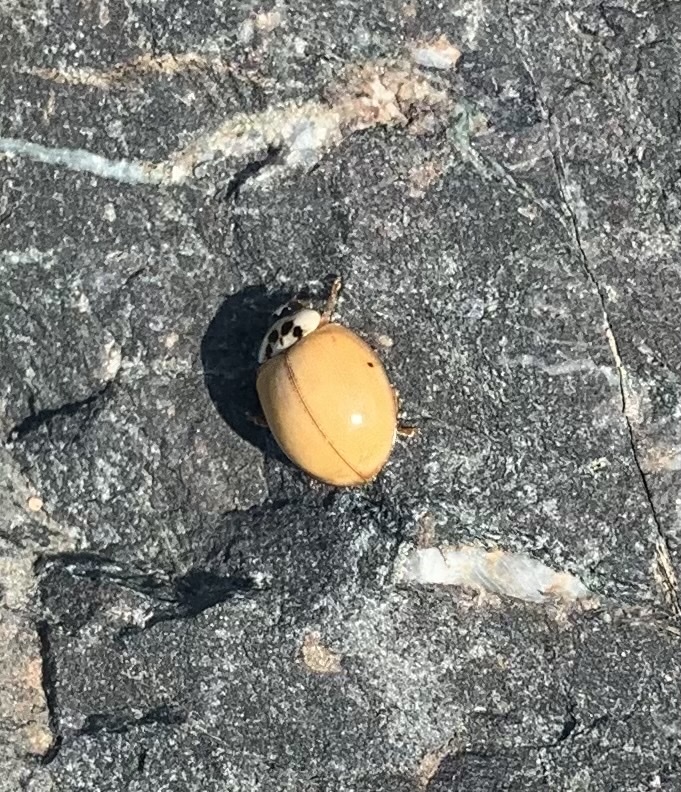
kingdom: Animalia
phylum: Arthropoda
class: Insecta
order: Coleoptera
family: Coccinellidae
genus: Harmonia
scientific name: Harmonia axyridis
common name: Harlequin ladybird
